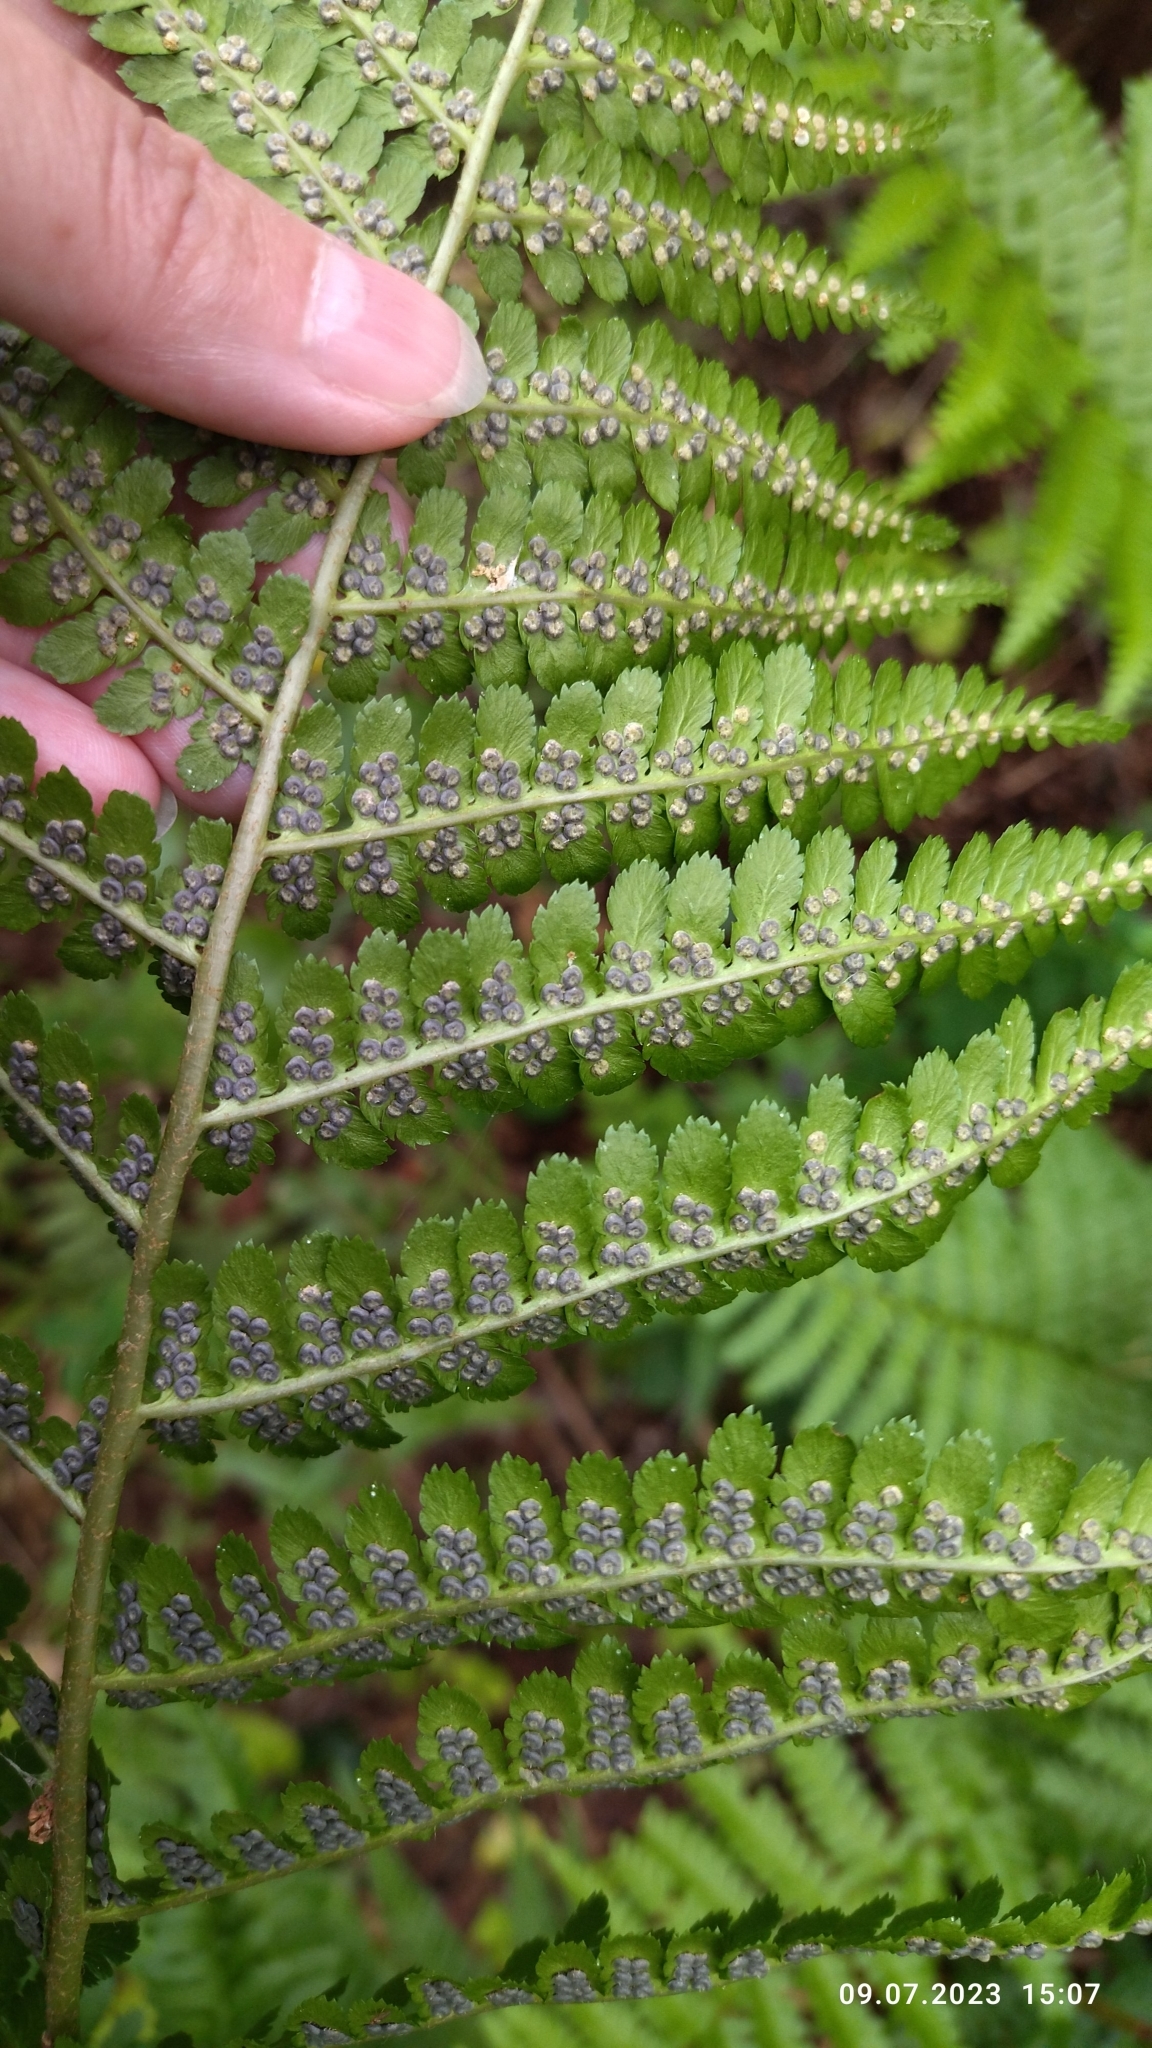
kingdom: Plantae
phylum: Tracheophyta
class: Polypodiopsida
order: Polypodiales
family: Dryopteridaceae
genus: Dryopteris
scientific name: Dryopteris filix-mas
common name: Male fern
